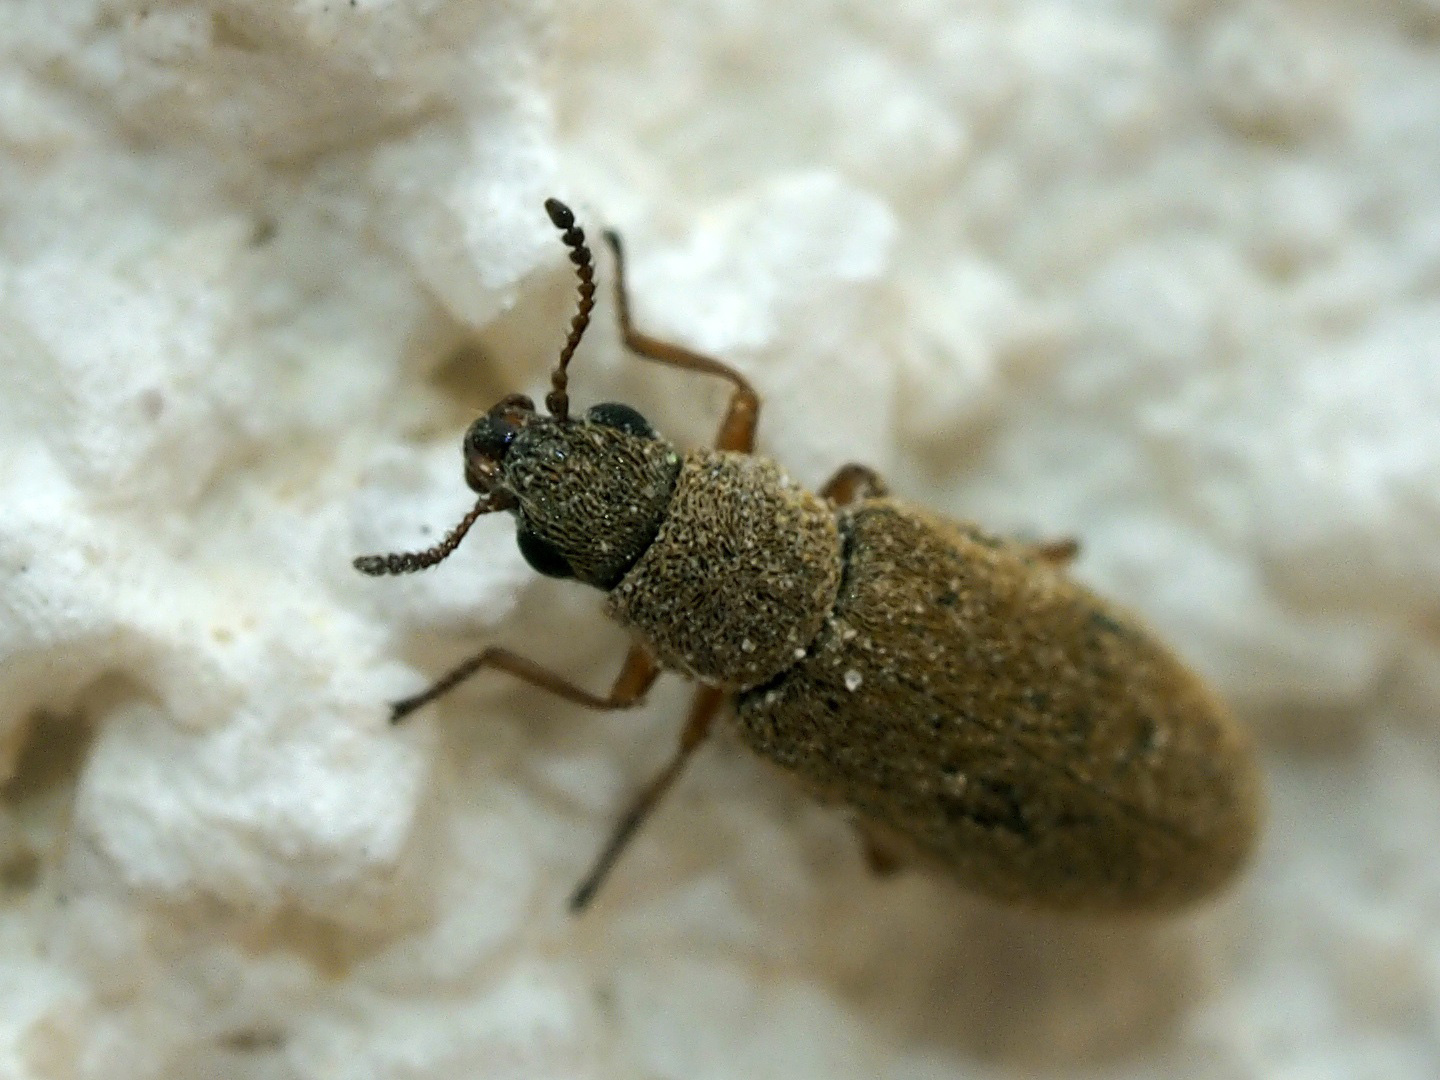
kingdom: Animalia
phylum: Arthropoda
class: Insecta
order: Coleoptera
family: Dasytidae
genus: Danacea
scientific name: Danacea
